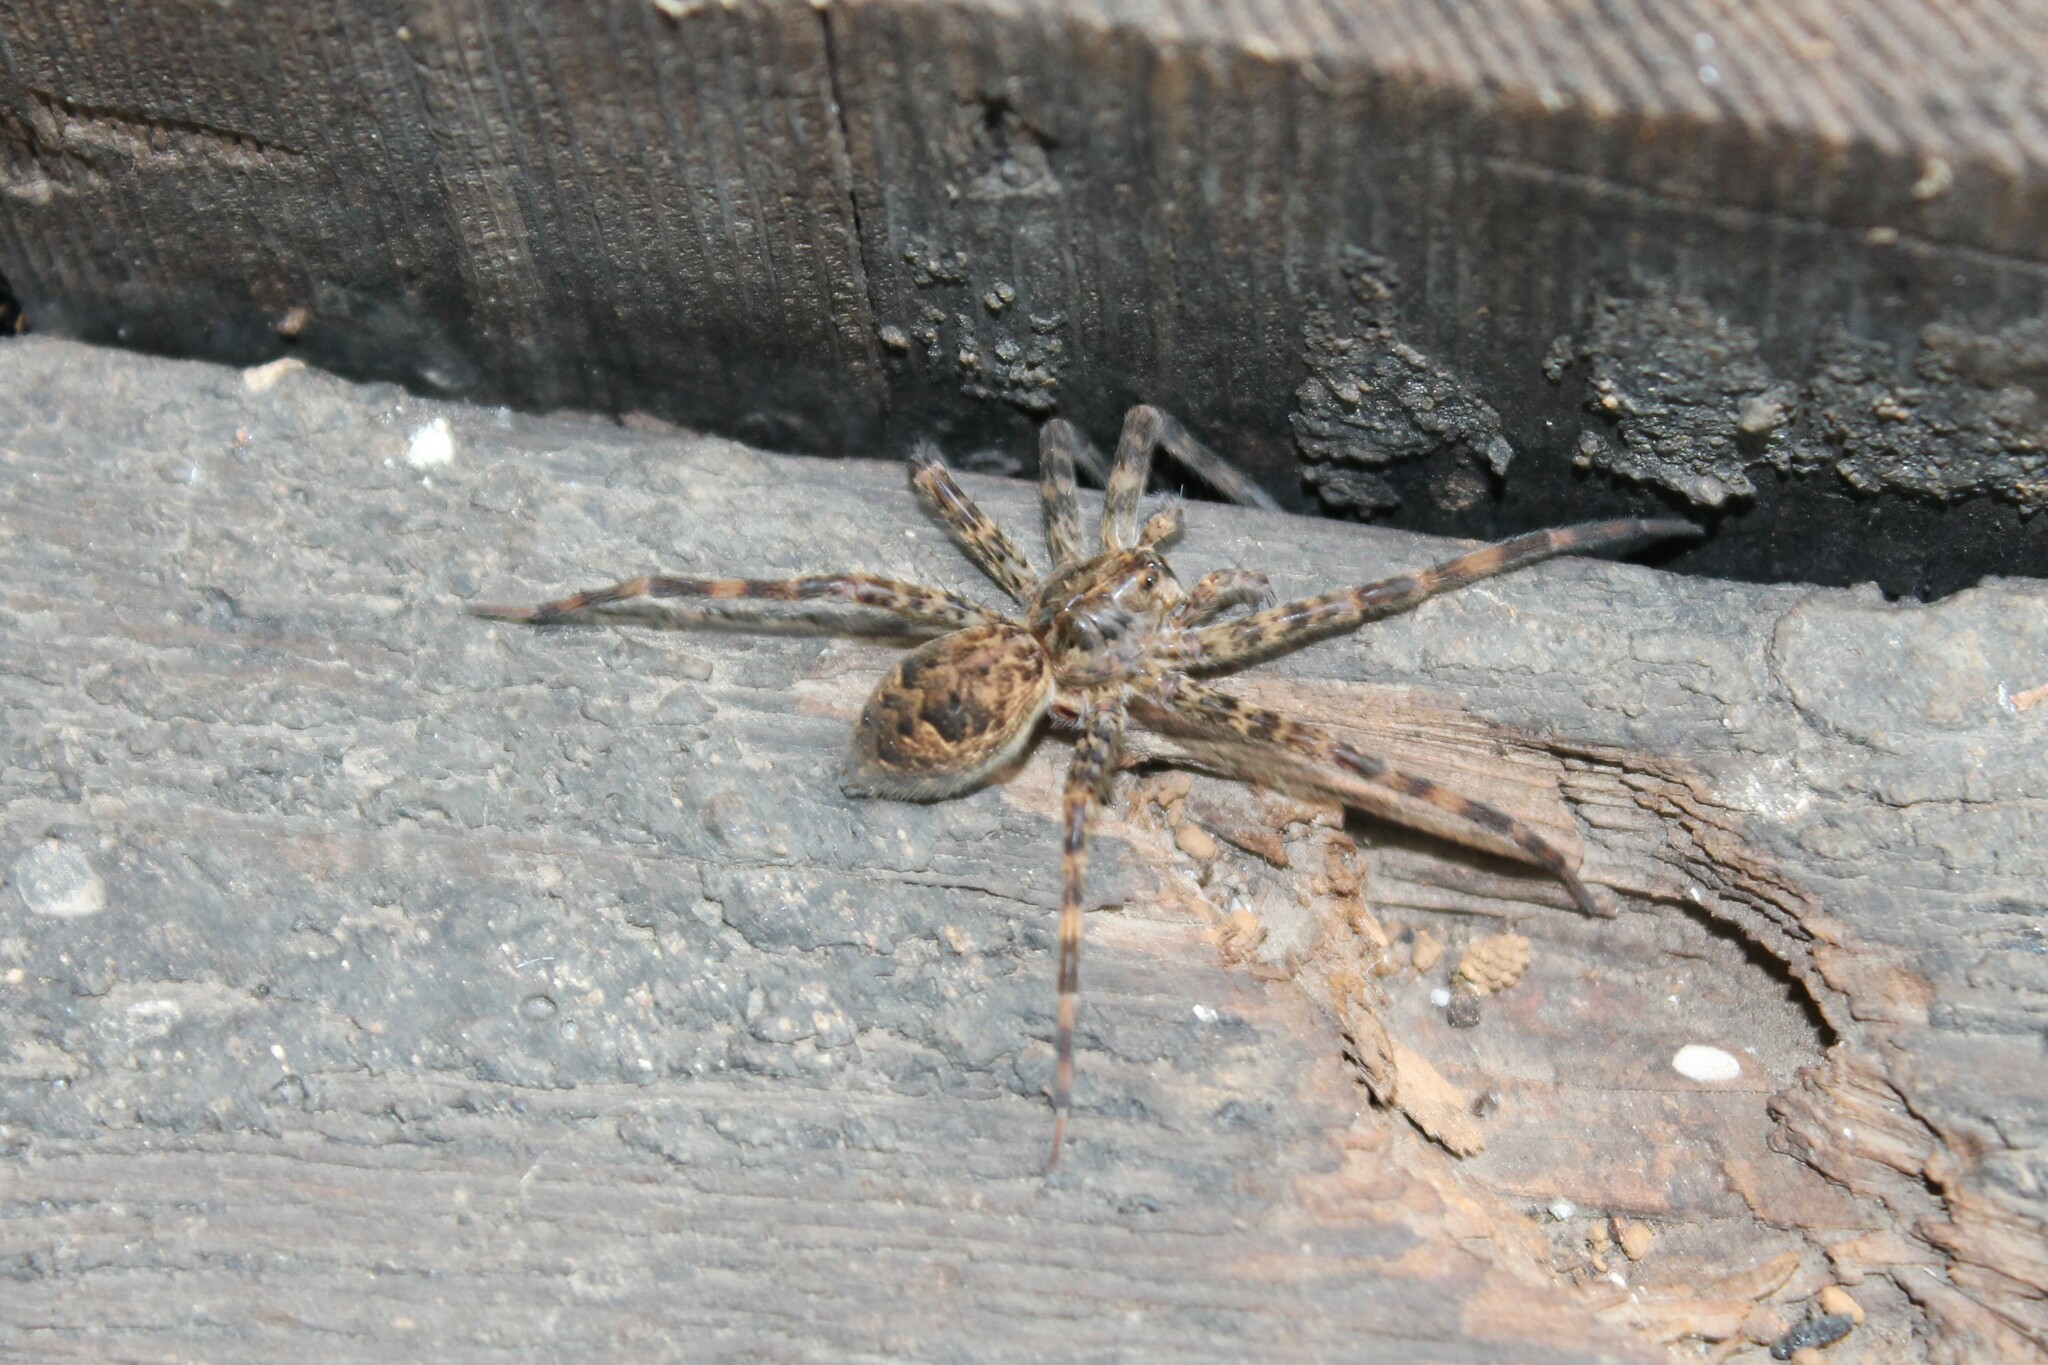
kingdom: Animalia
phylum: Arthropoda
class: Arachnida
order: Araneae
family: Pisauridae
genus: Dolomedes
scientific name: Dolomedes tenebrosus
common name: Dark fishing spider
